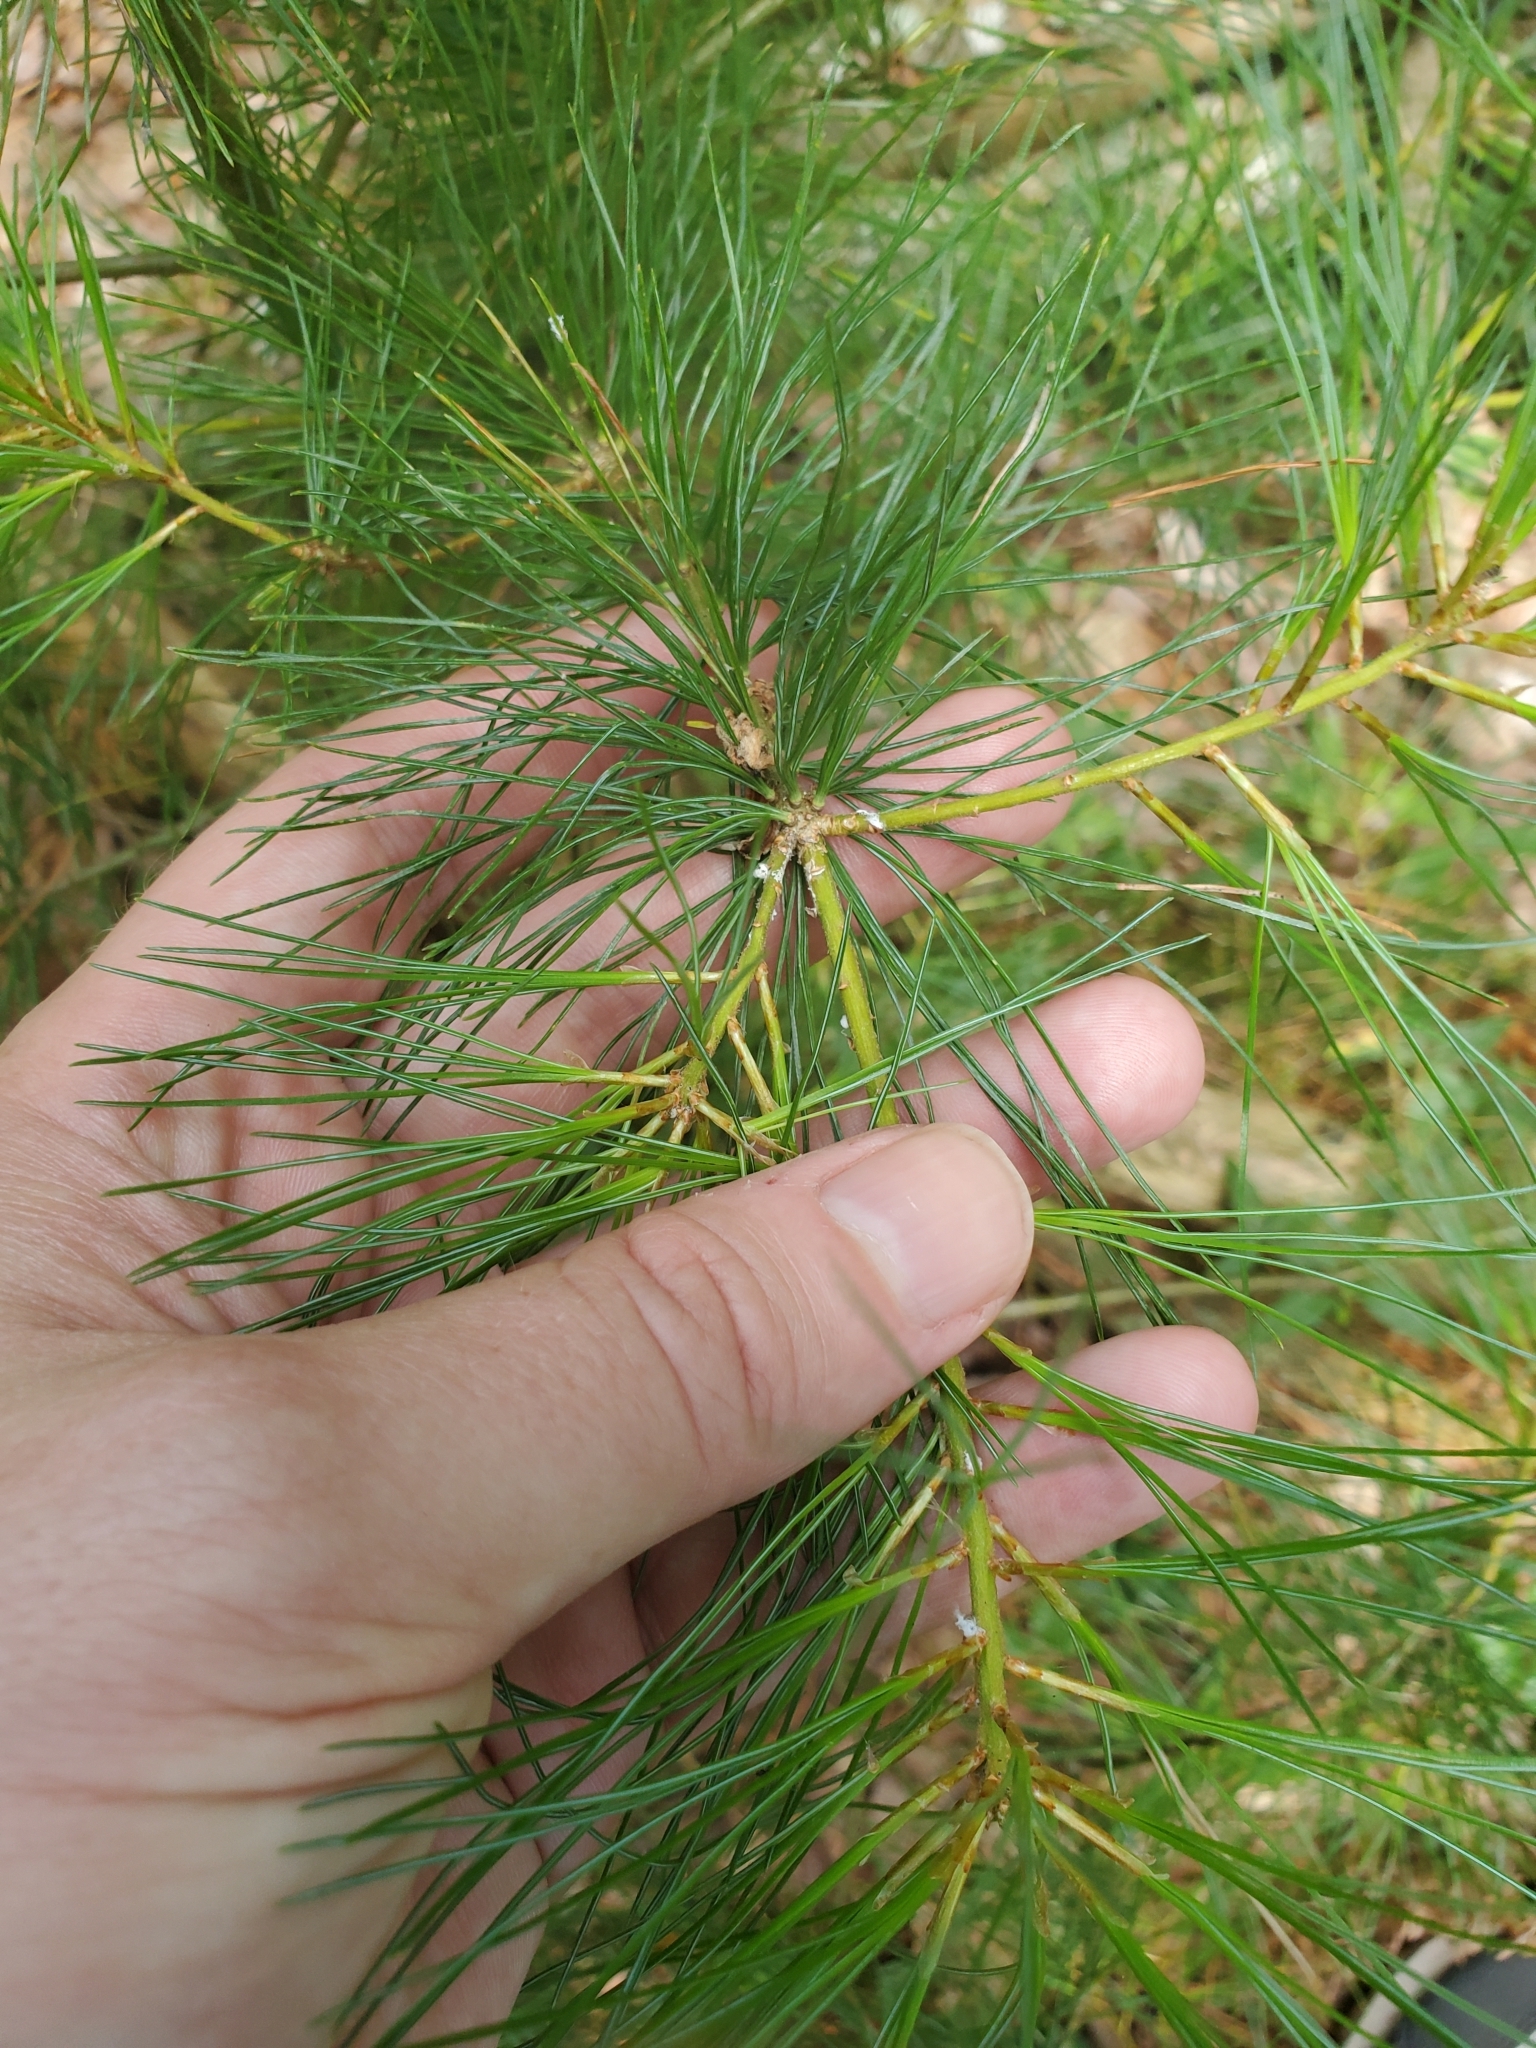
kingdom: Plantae
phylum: Tracheophyta
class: Pinopsida
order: Pinales
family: Pinaceae
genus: Pinus
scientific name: Pinus strobus
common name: Weymouth pine
